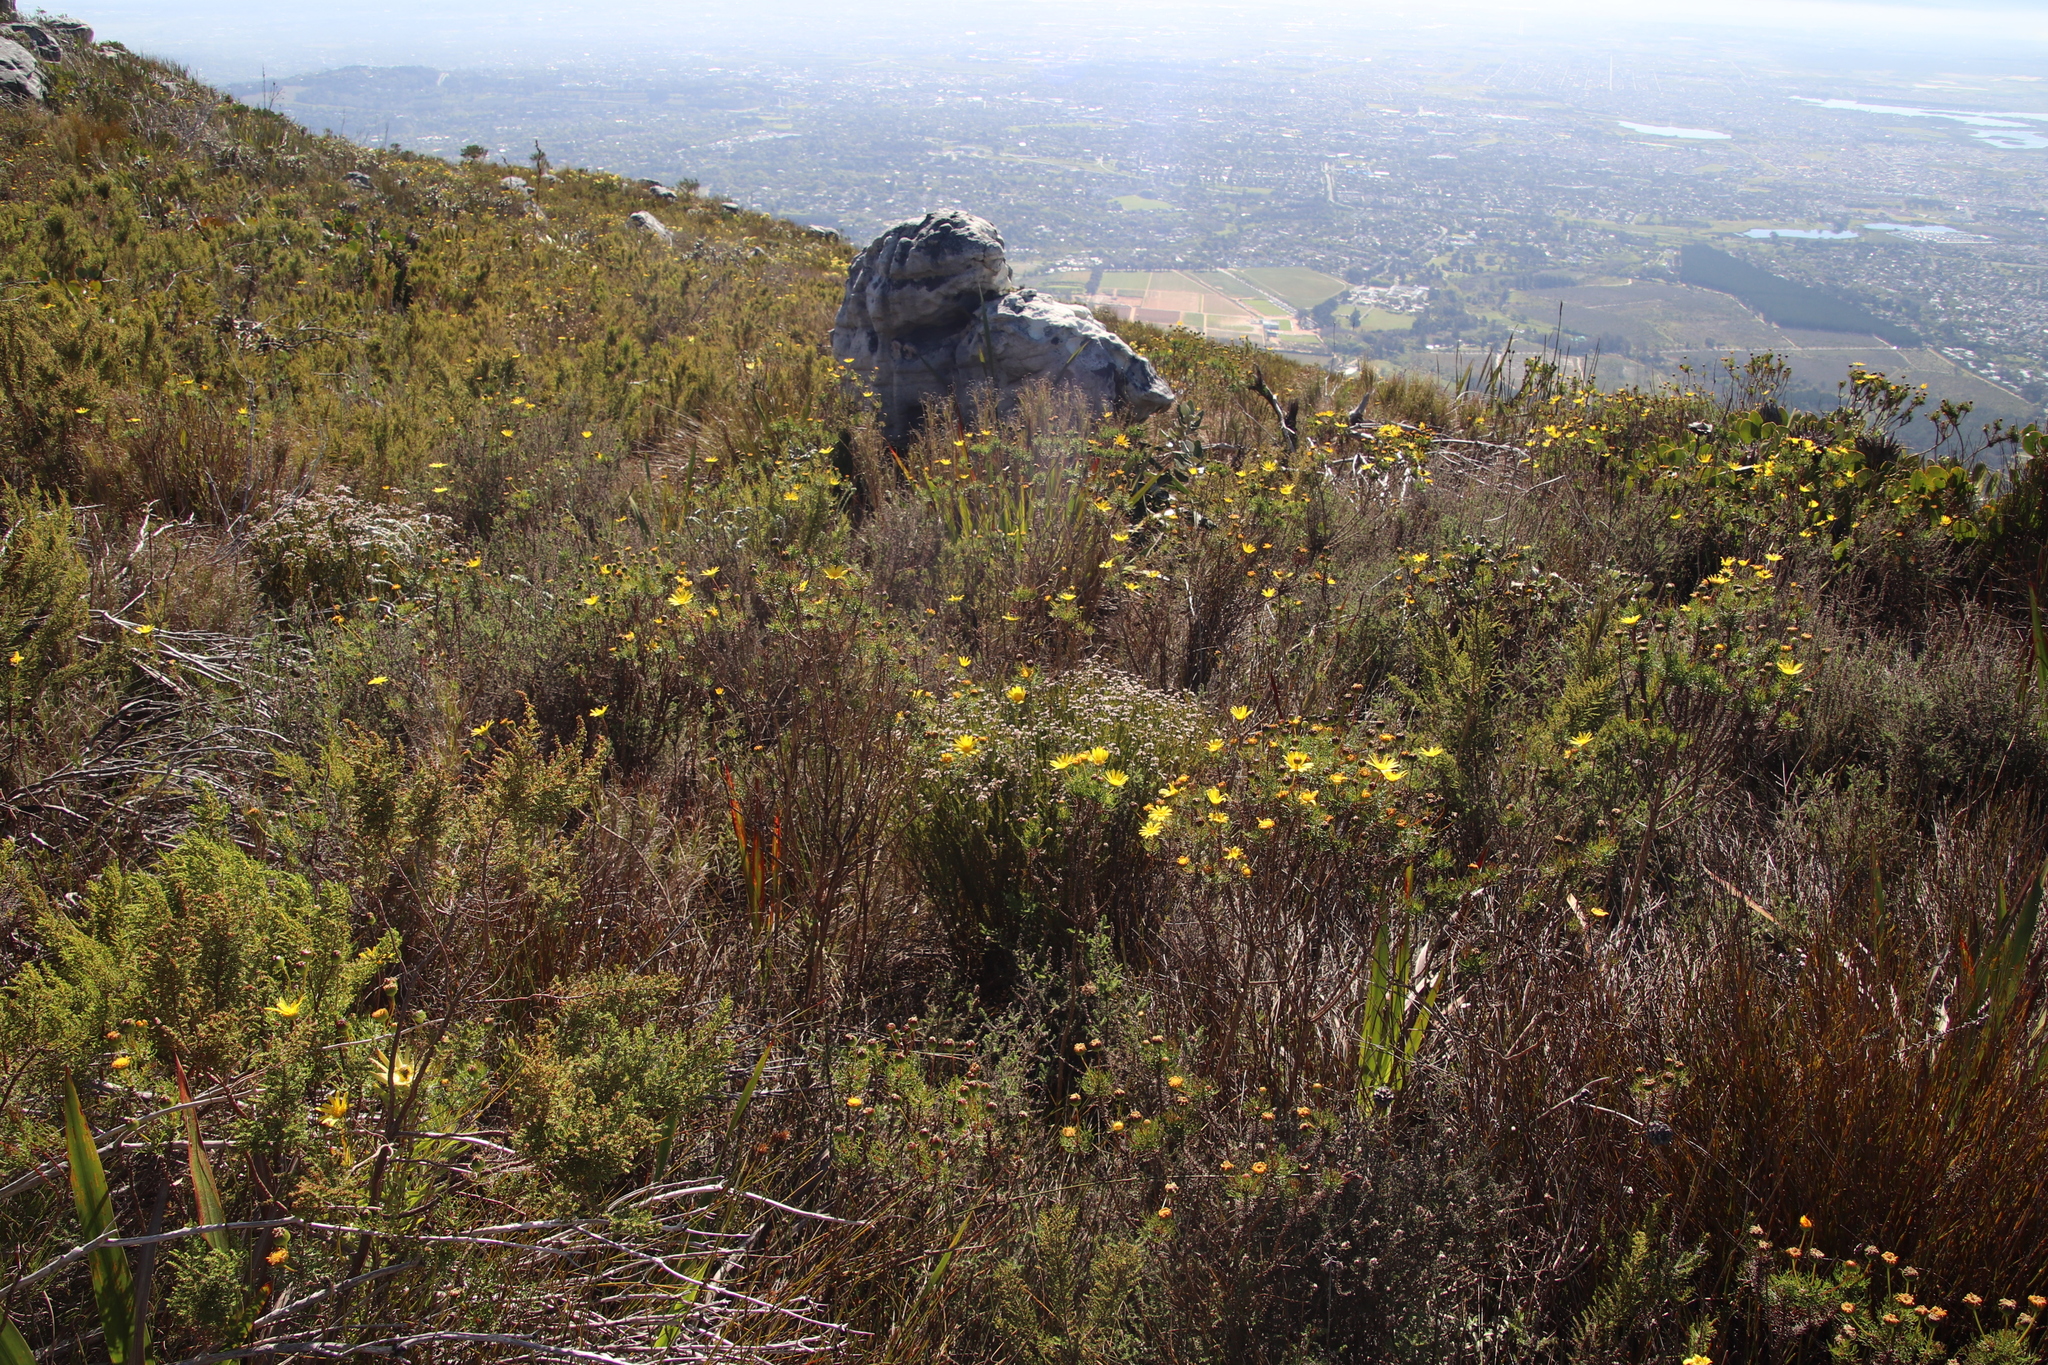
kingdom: Plantae
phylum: Tracheophyta
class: Magnoliopsida
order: Bruniales
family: Bruniaceae
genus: Staavia
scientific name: Staavia radiata
